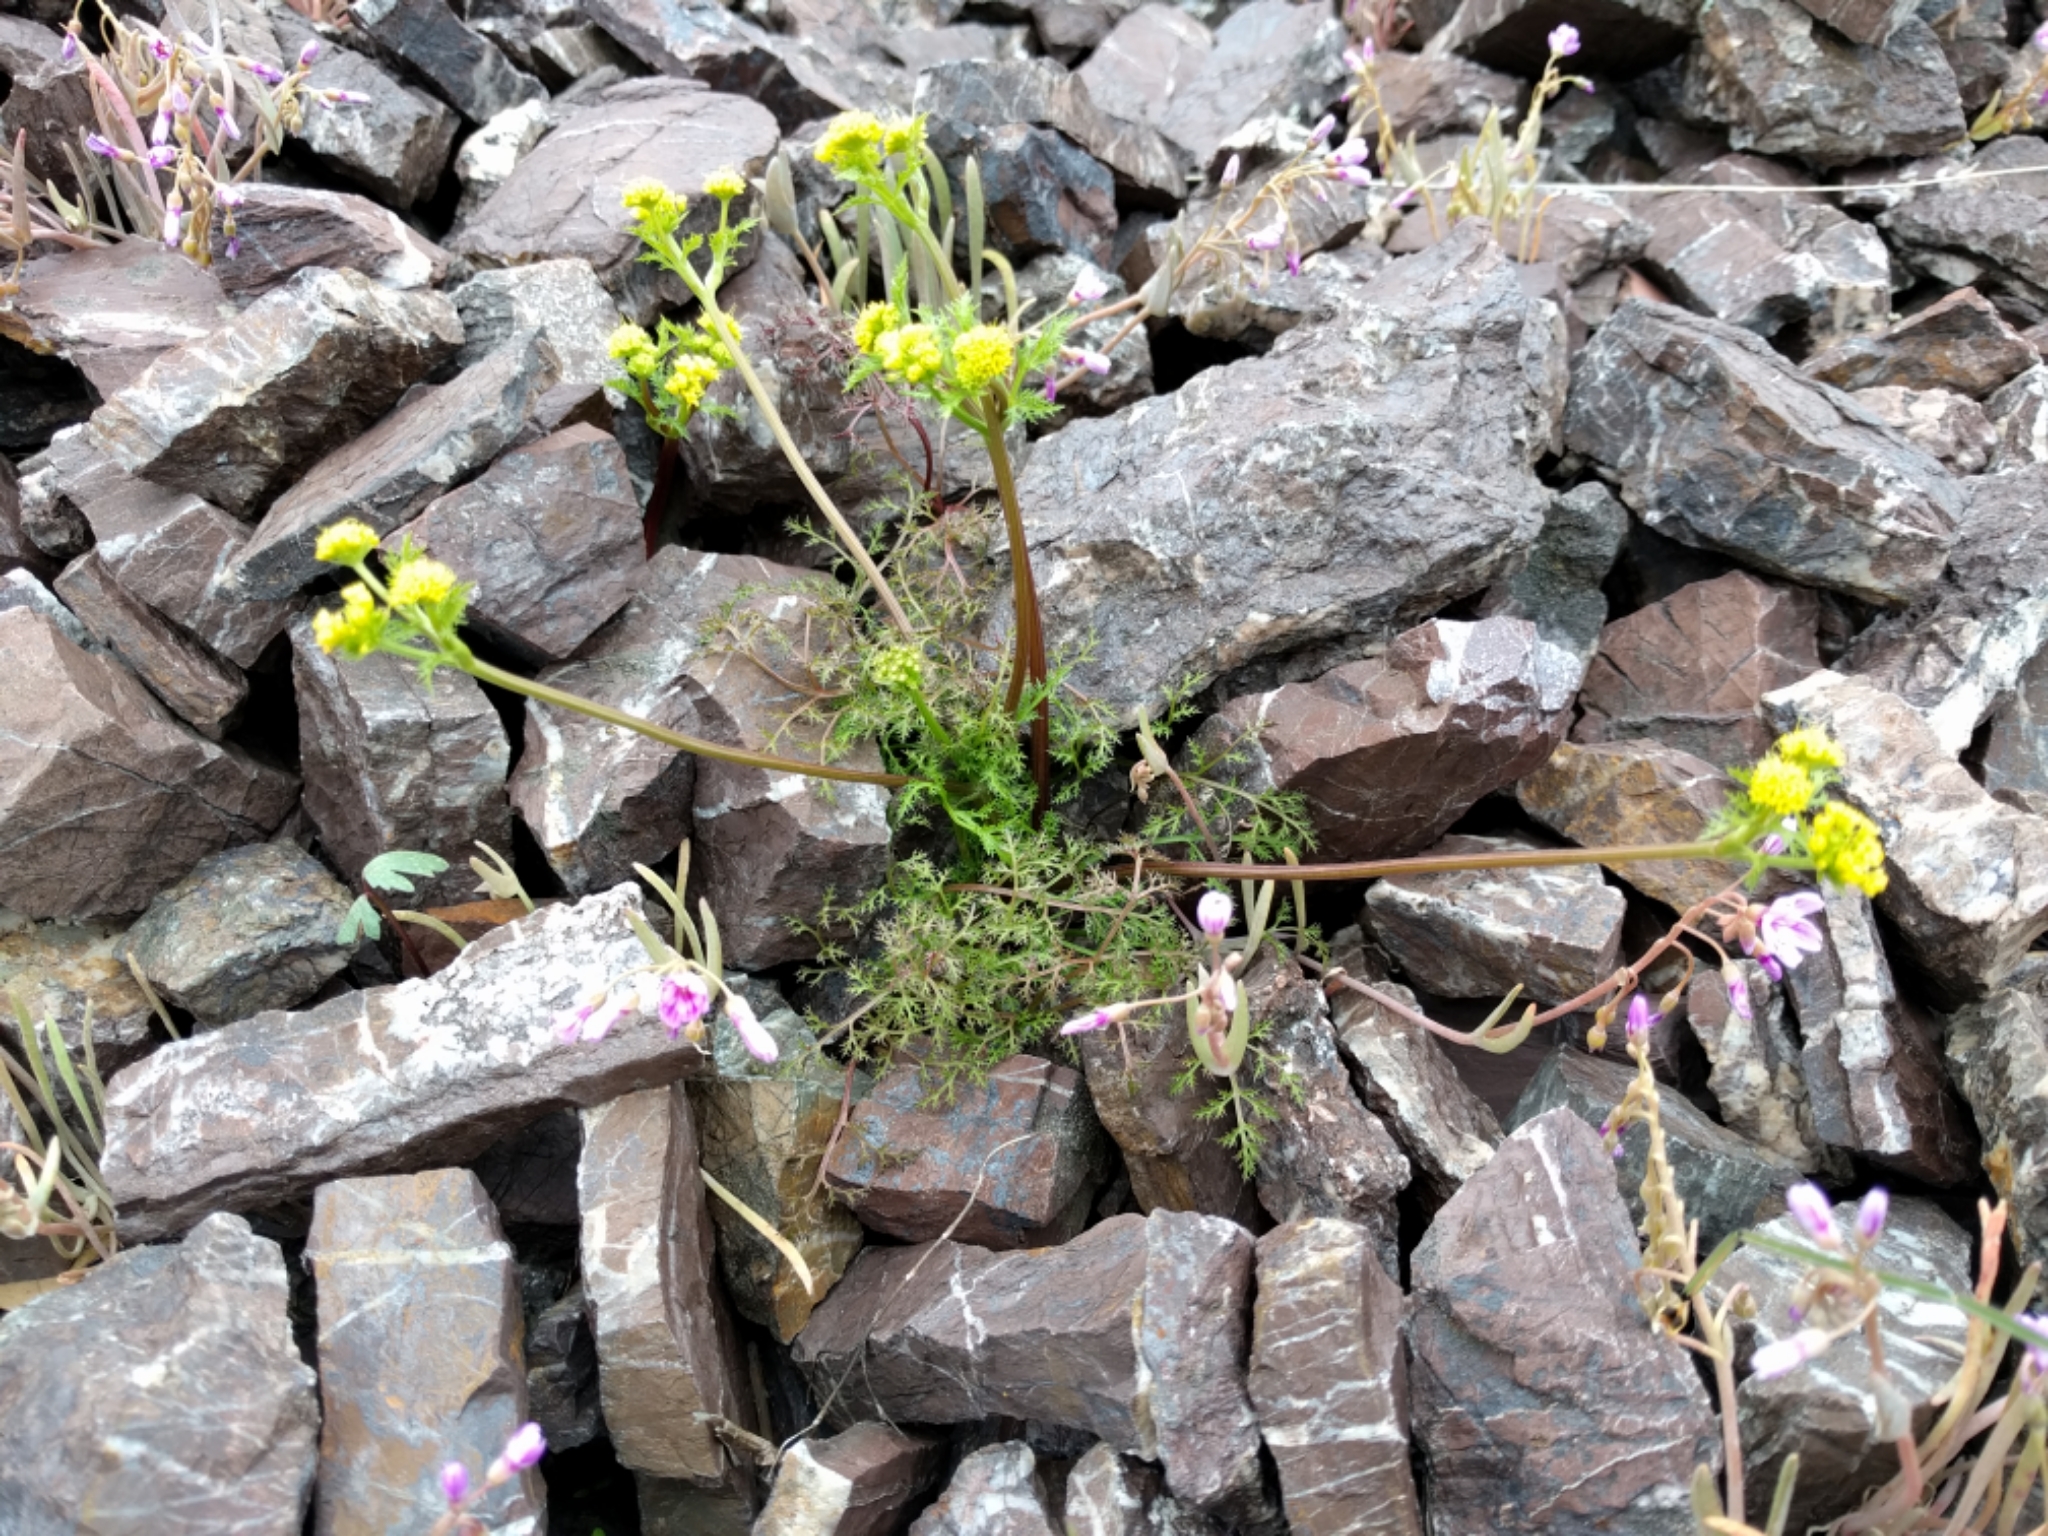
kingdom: Plantae
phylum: Tracheophyta
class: Magnoliopsida
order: Apiales
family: Apiaceae
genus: Sanicula
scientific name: Sanicula tuberosa
